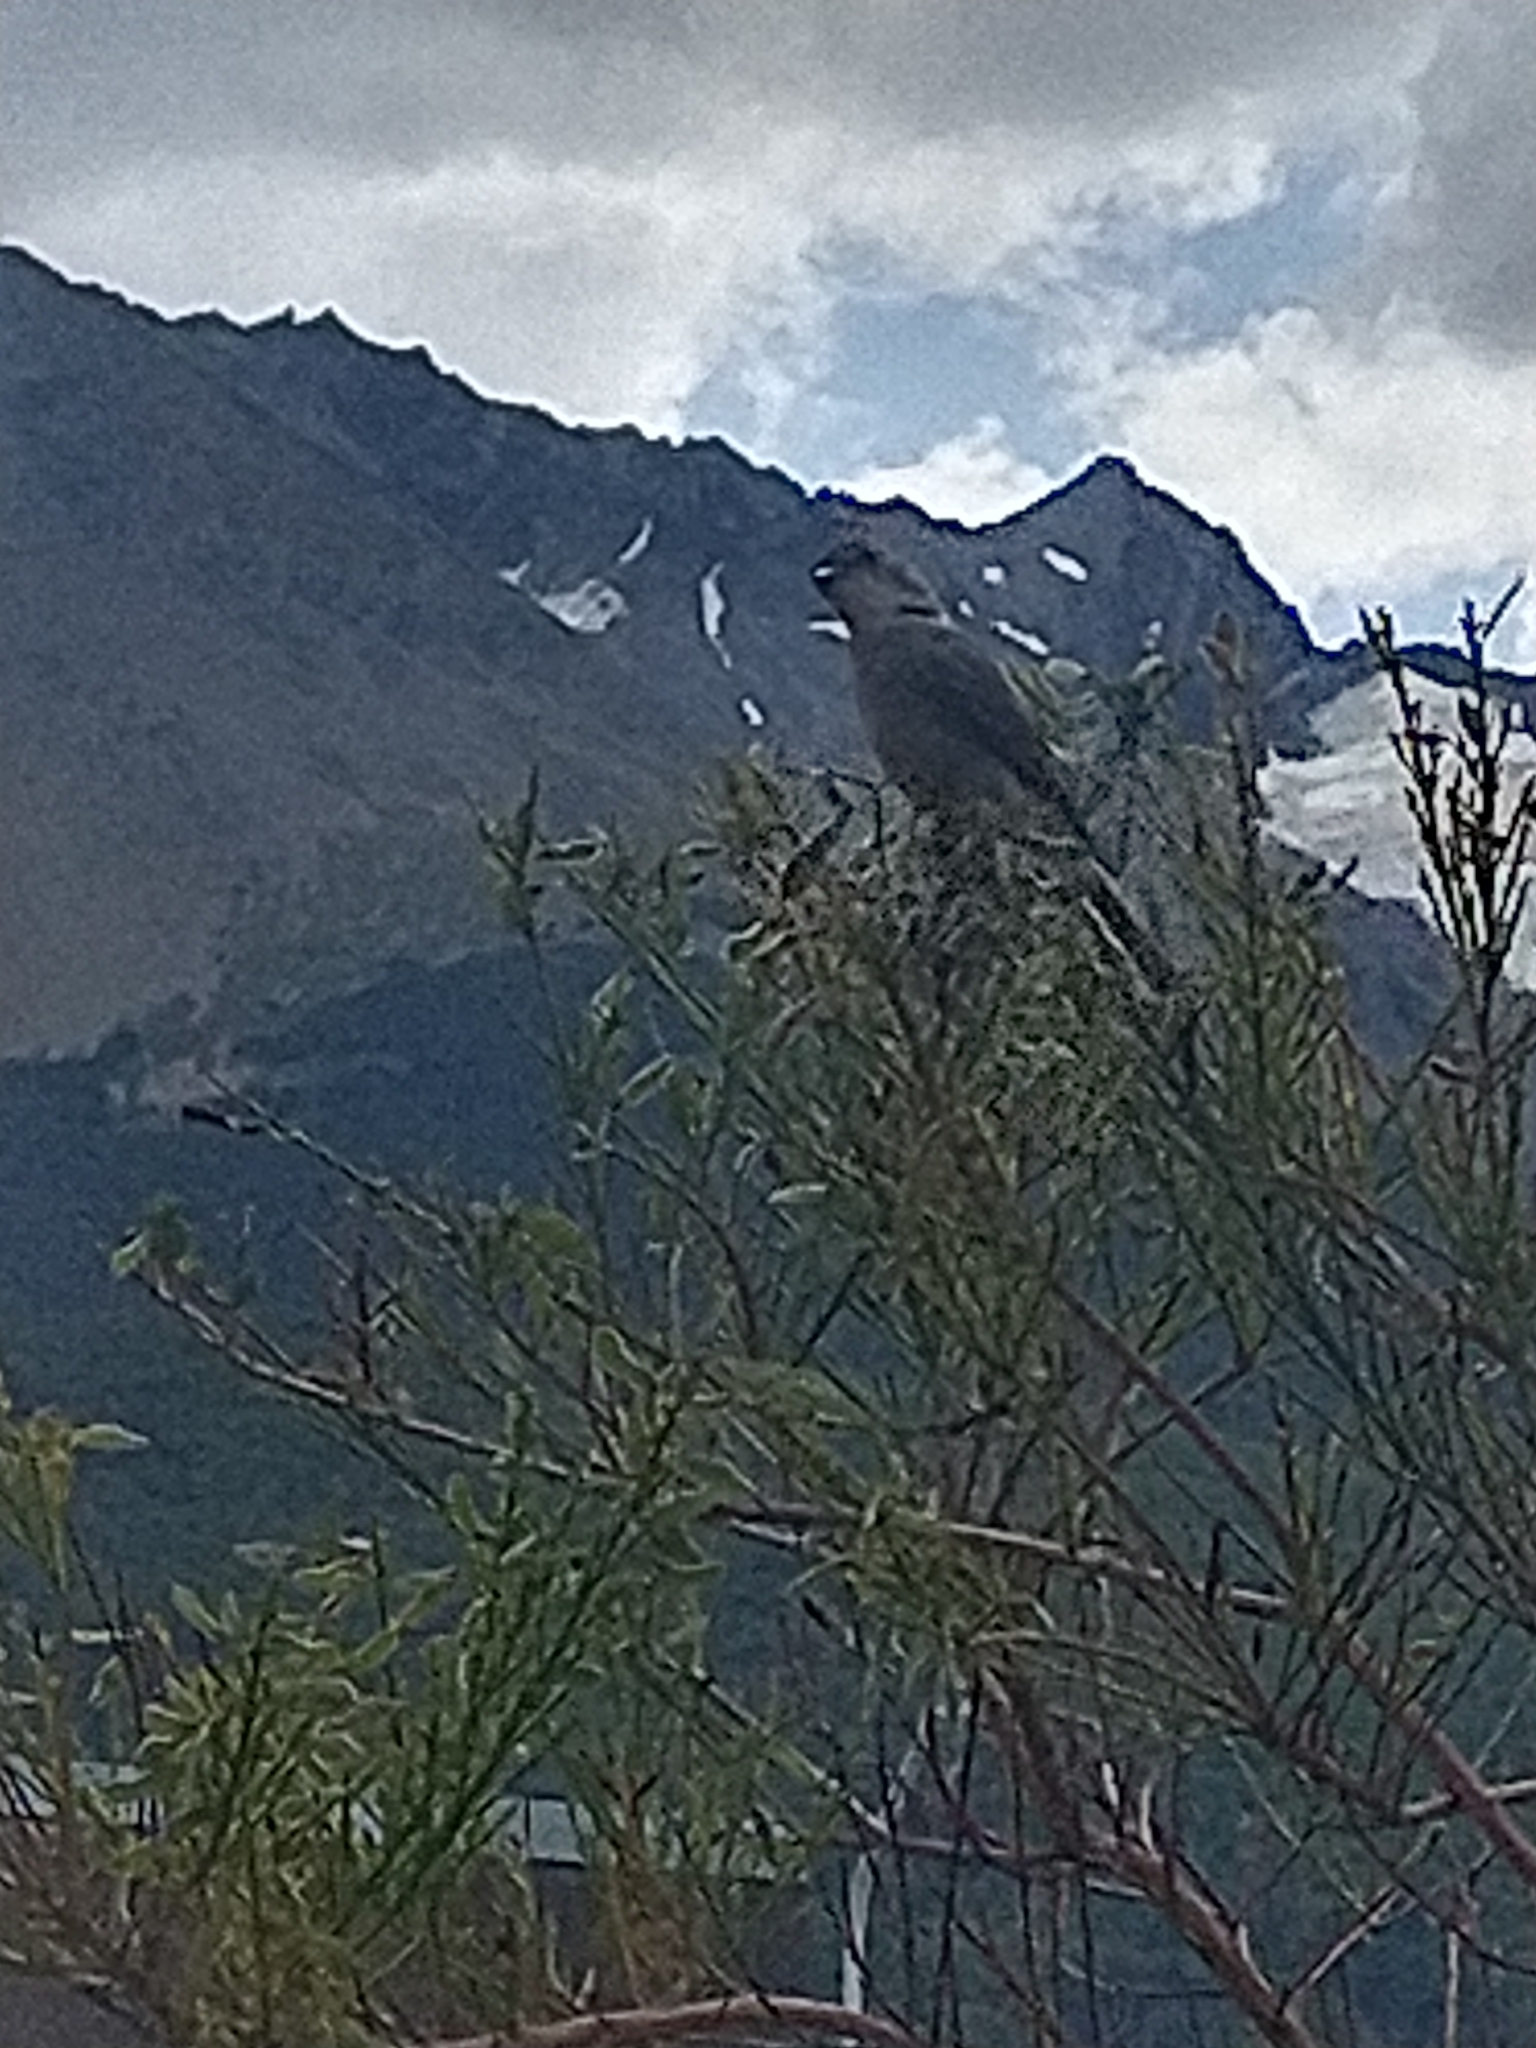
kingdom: Animalia
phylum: Chordata
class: Aves
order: Passeriformes
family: Tyrannidae
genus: Xolmis
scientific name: Xolmis pyrope
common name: Fire-eyed diucon
